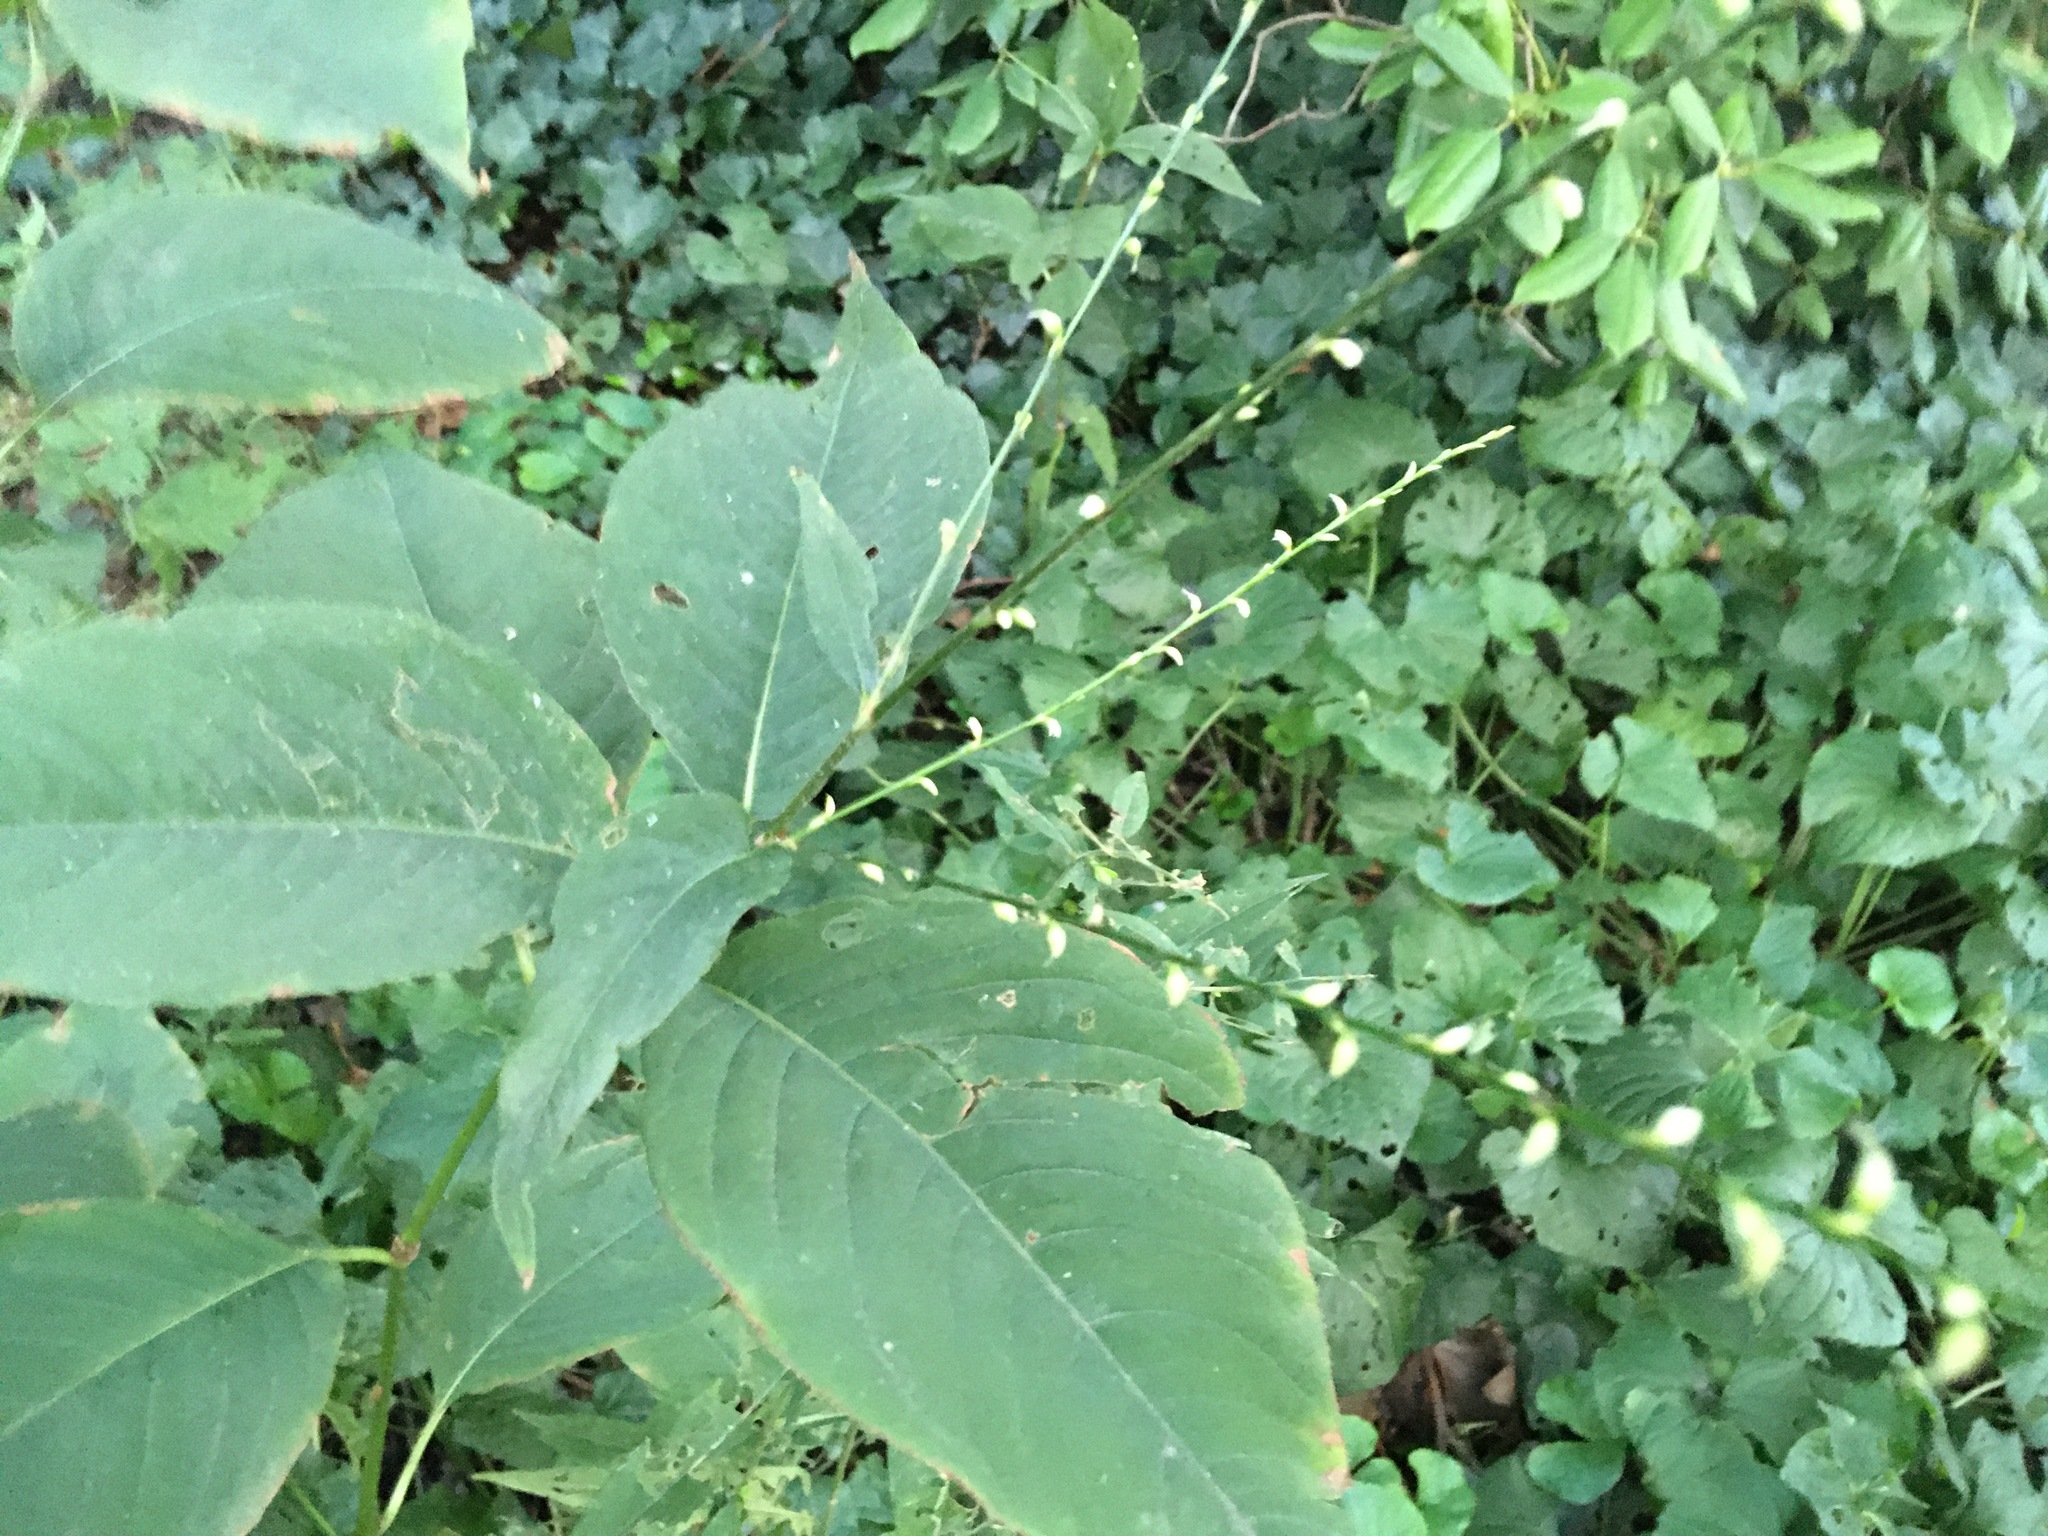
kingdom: Plantae
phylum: Tracheophyta
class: Magnoliopsida
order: Caryophyllales
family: Polygonaceae
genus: Persicaria
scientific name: Persicaria virginiana
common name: Jumpseed
